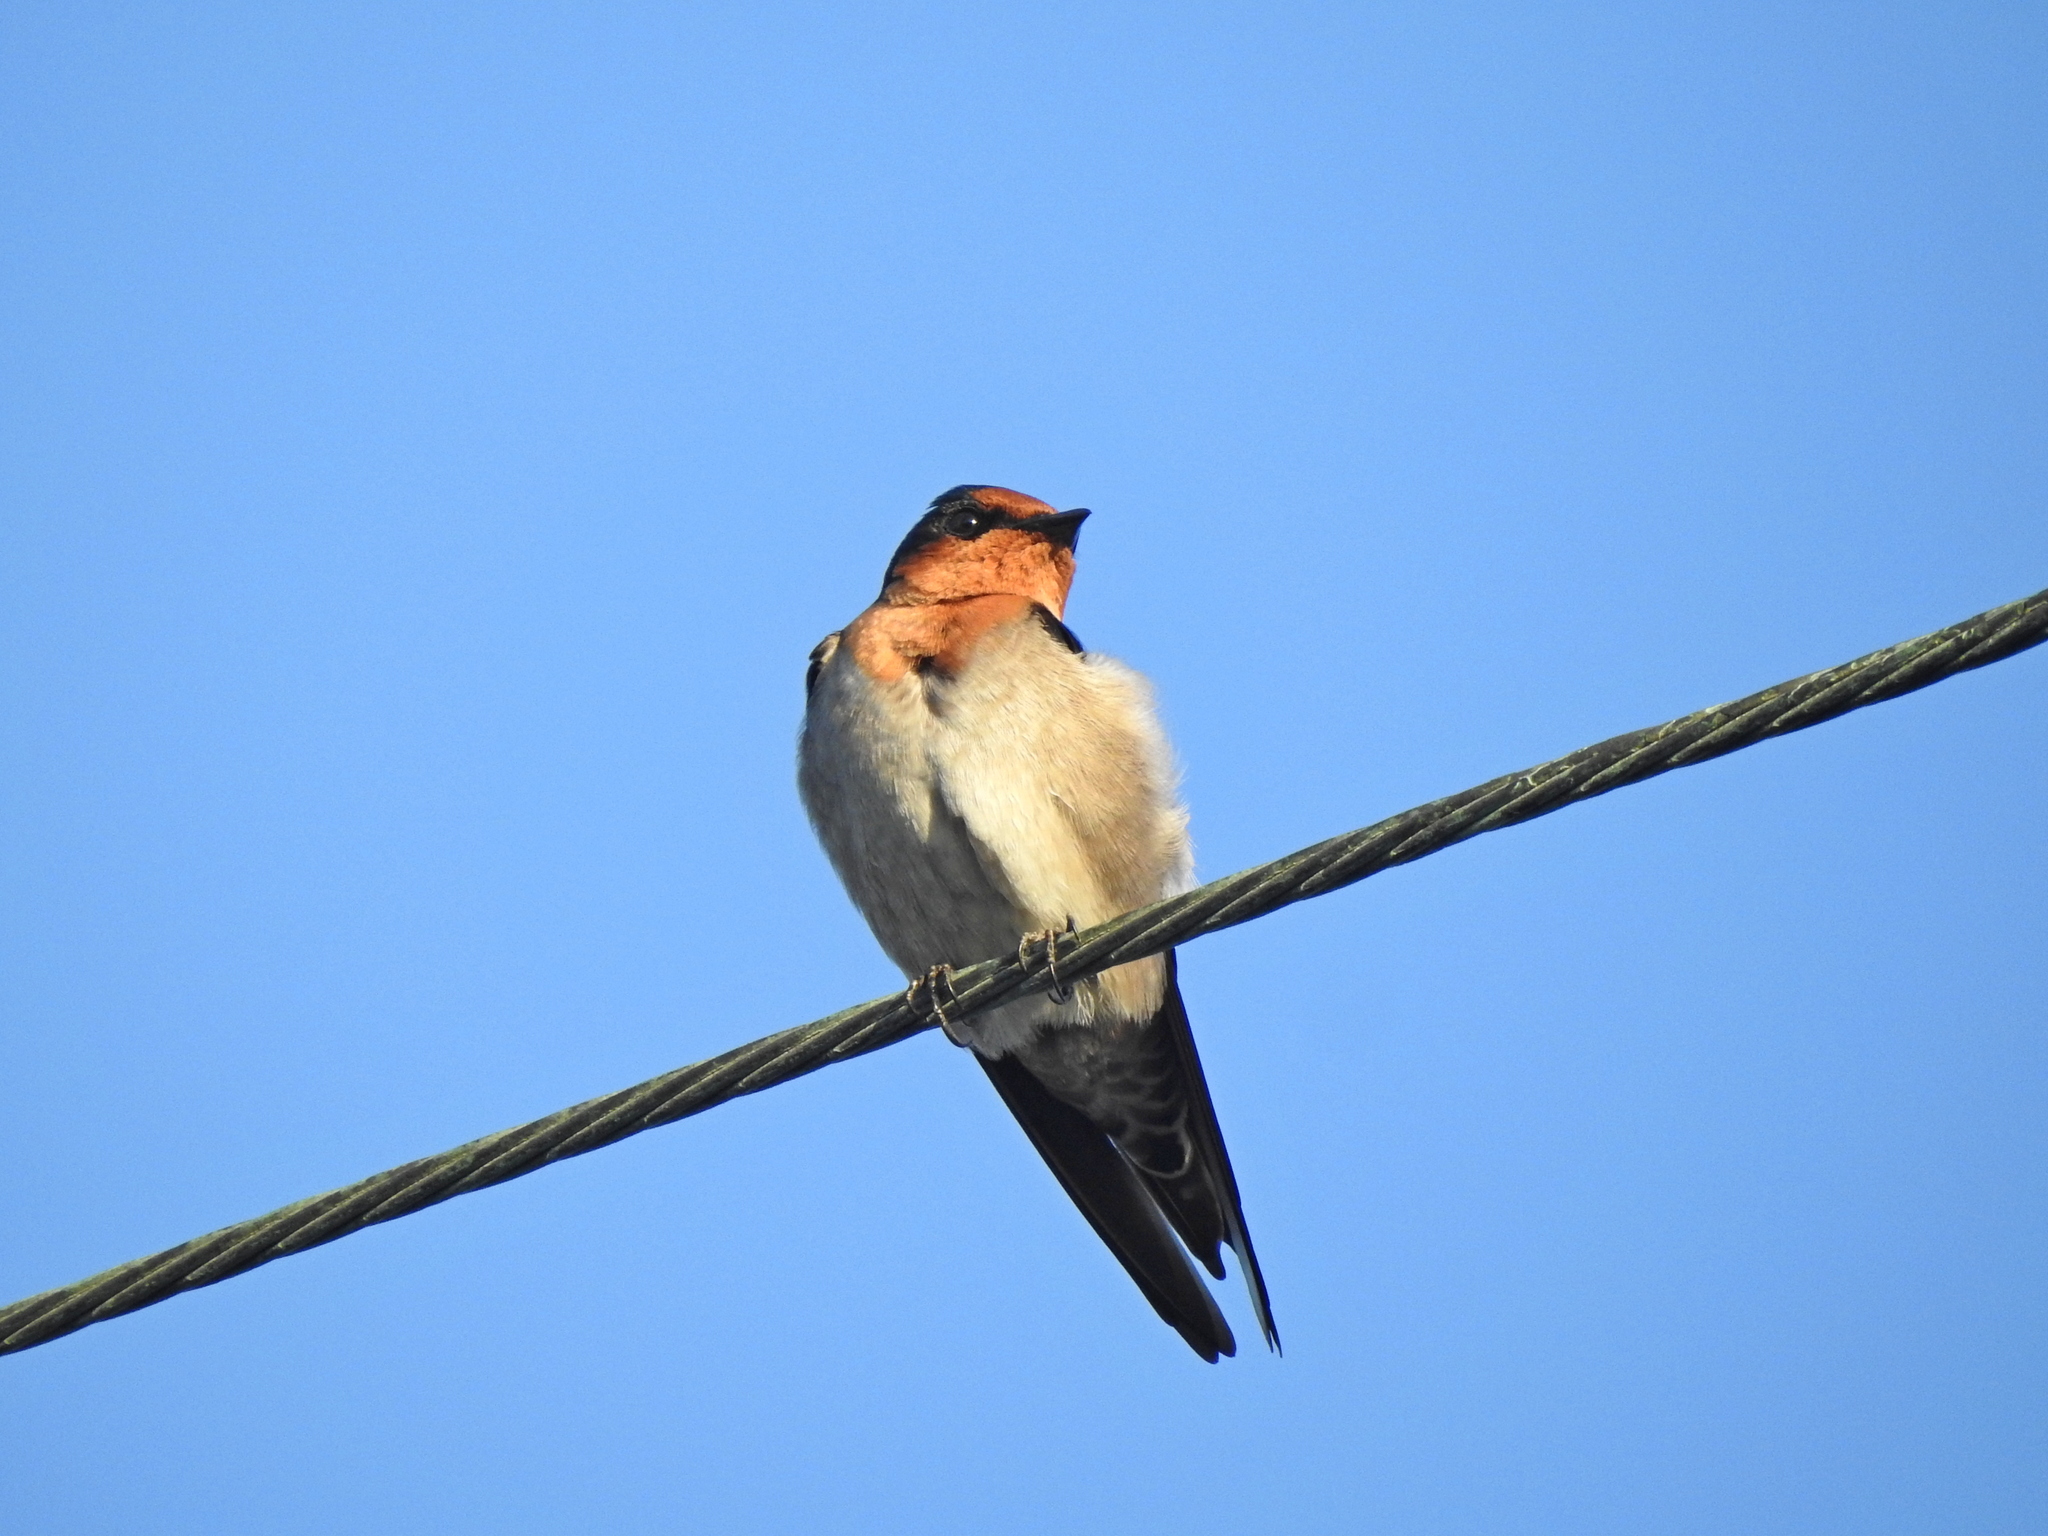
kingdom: Animalia
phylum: Chordata
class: Aves
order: Passeriformes
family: Hirundinidae
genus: Hirundo
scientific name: Hirundo tahitica
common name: Pacific swallow
